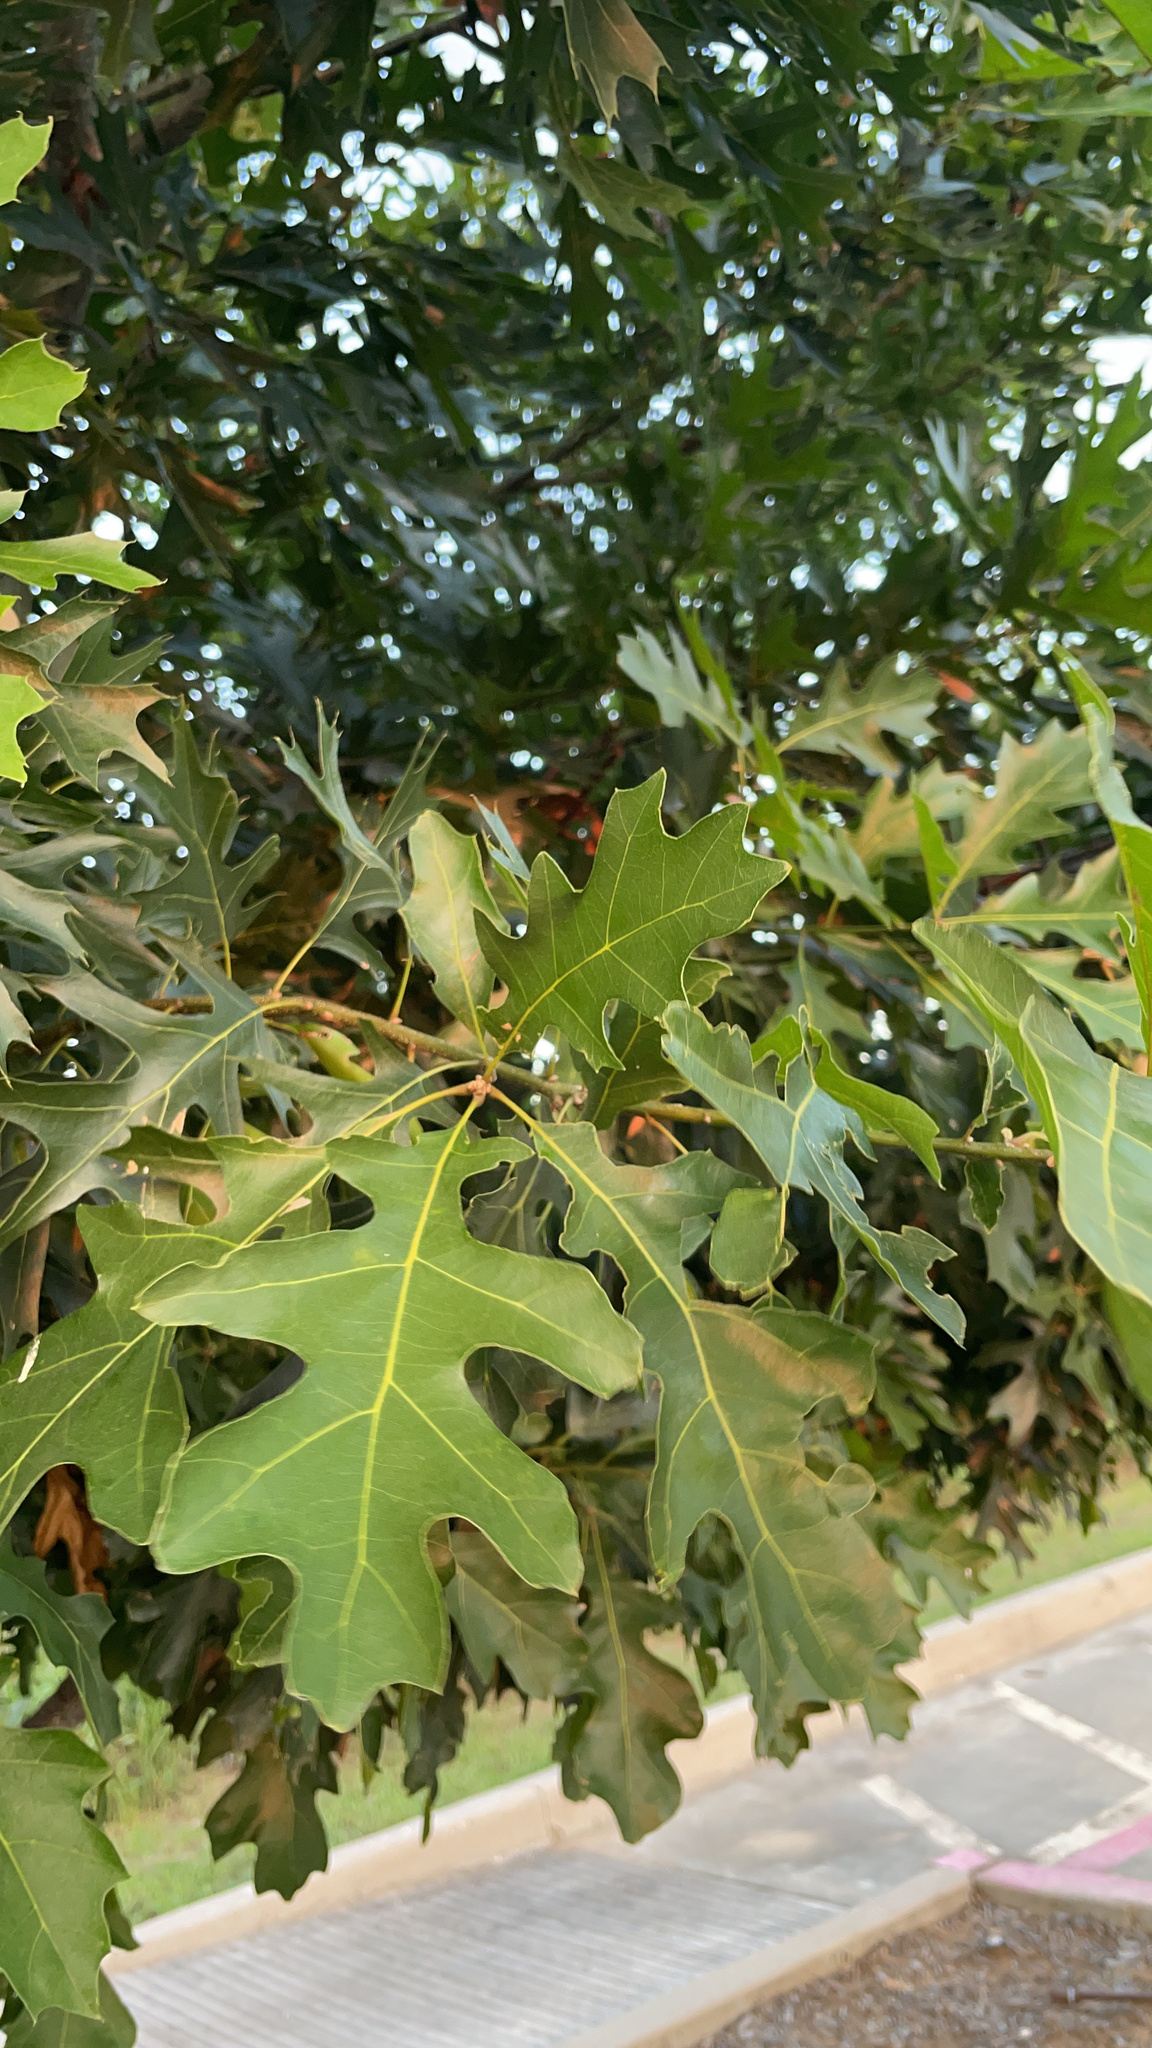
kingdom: Plantae
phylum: Tracheophyta
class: Magnoliopsida
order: Fagales
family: Fagaceae
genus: Quercus
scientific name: Quercus shumardii
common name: Shumard oak
